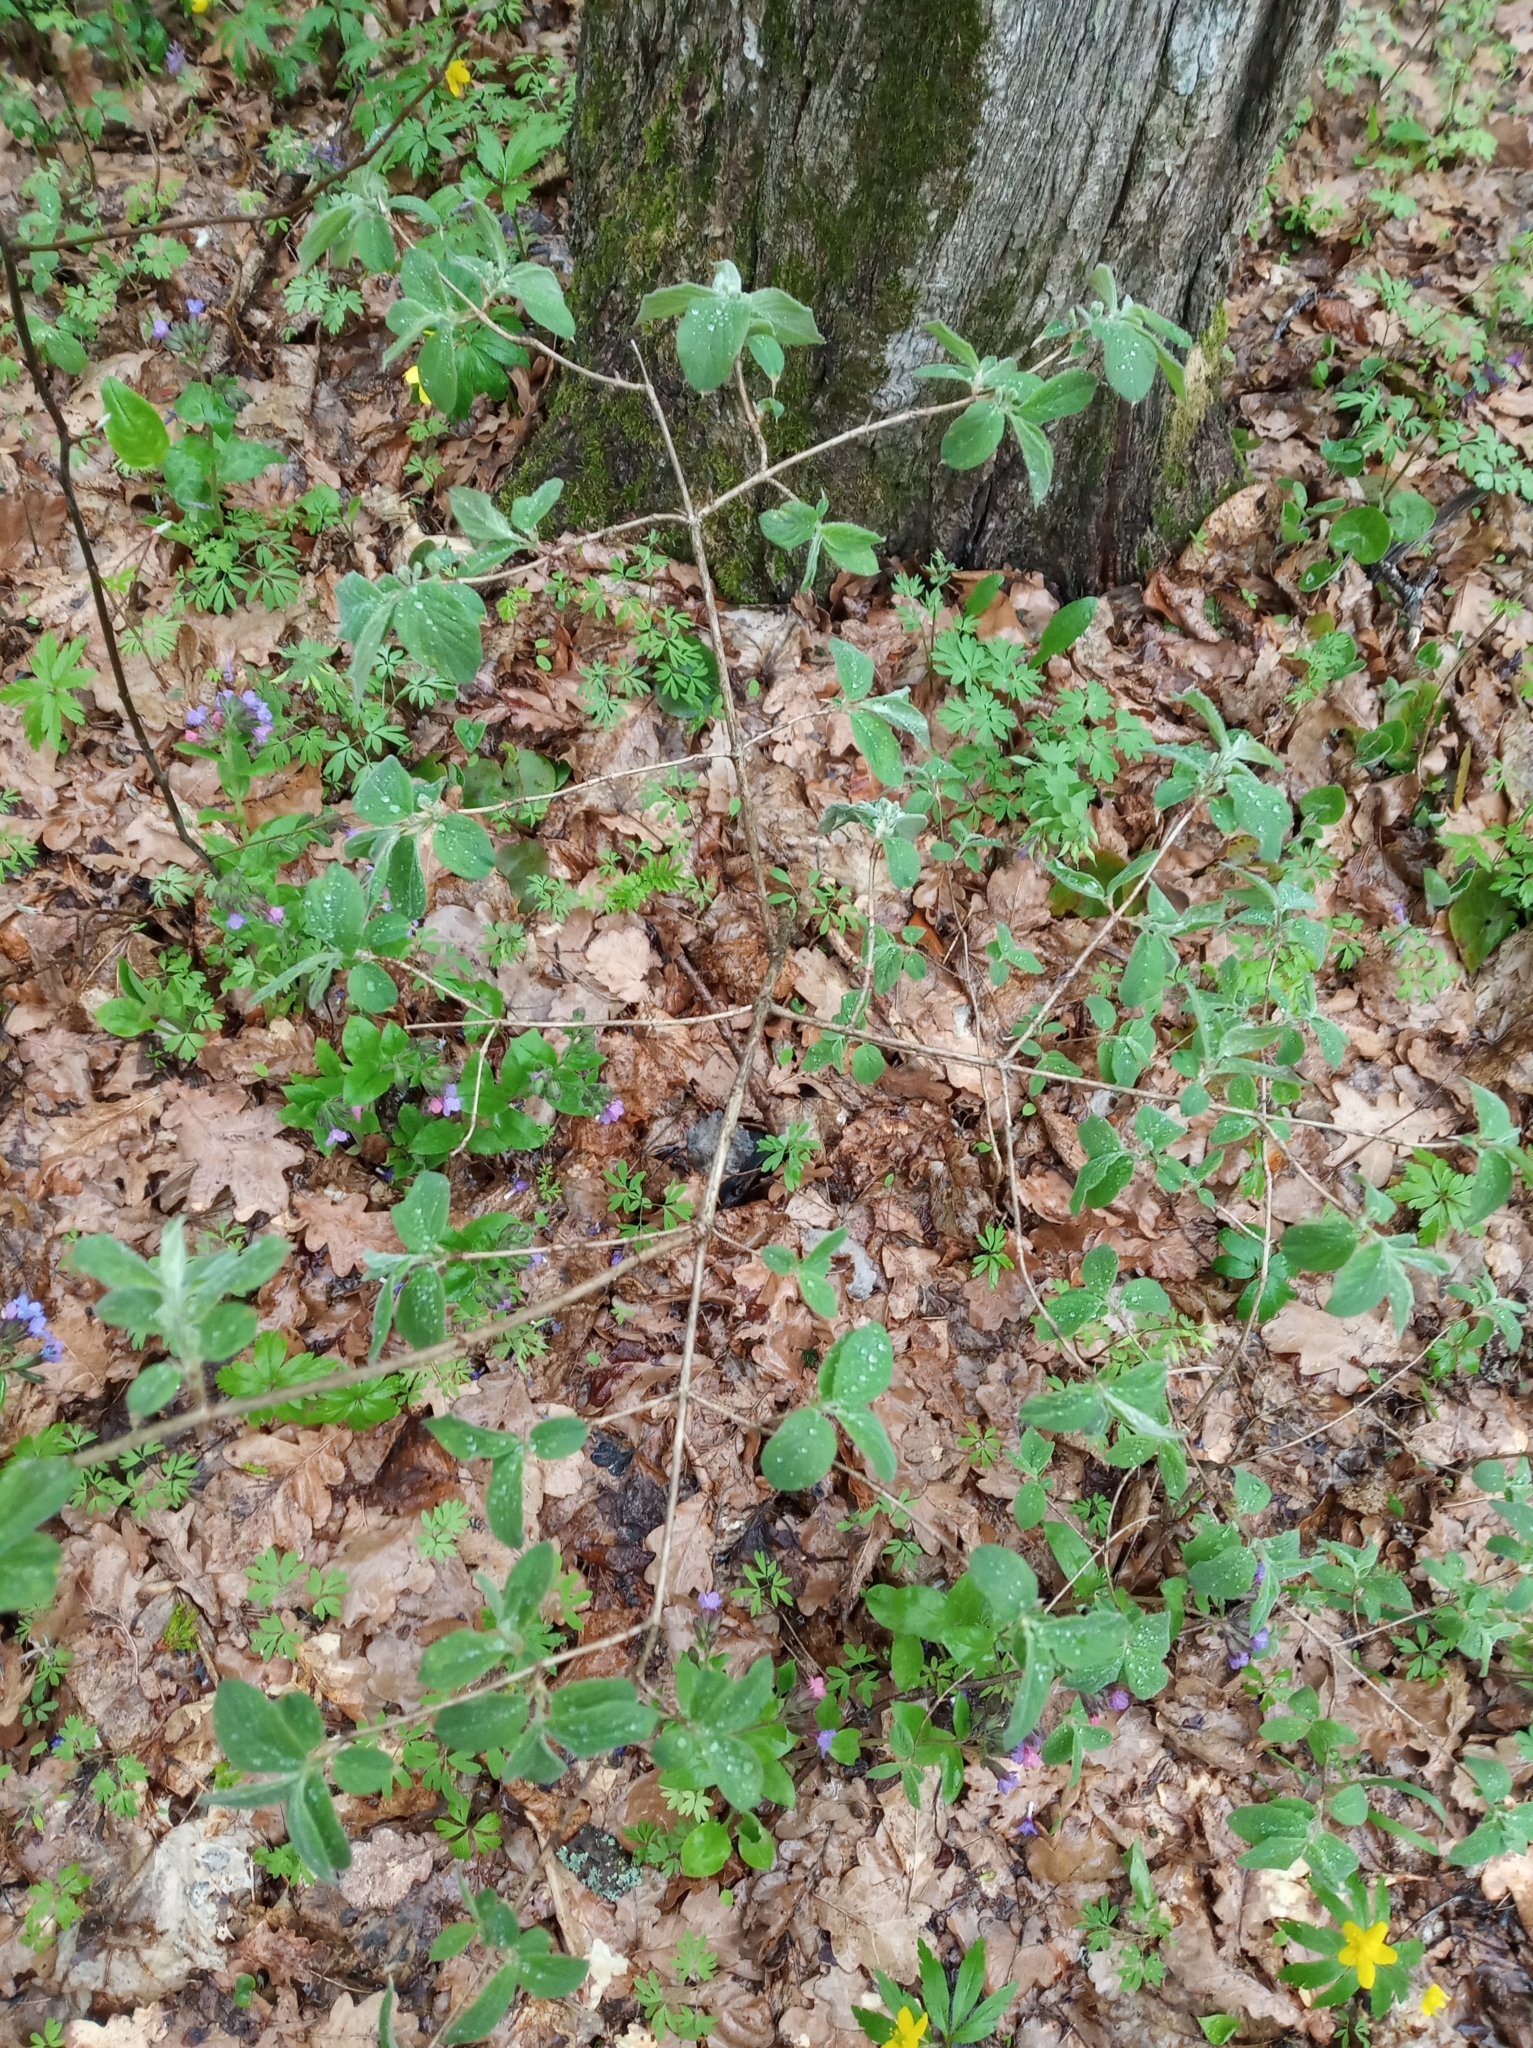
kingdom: Plantae
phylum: Tracheophyta
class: Magnoliopsida
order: Dipsacales
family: Caprifoliaceae
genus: Lonicera
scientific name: Lonicera xylosteum
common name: Fly honeysuckle
